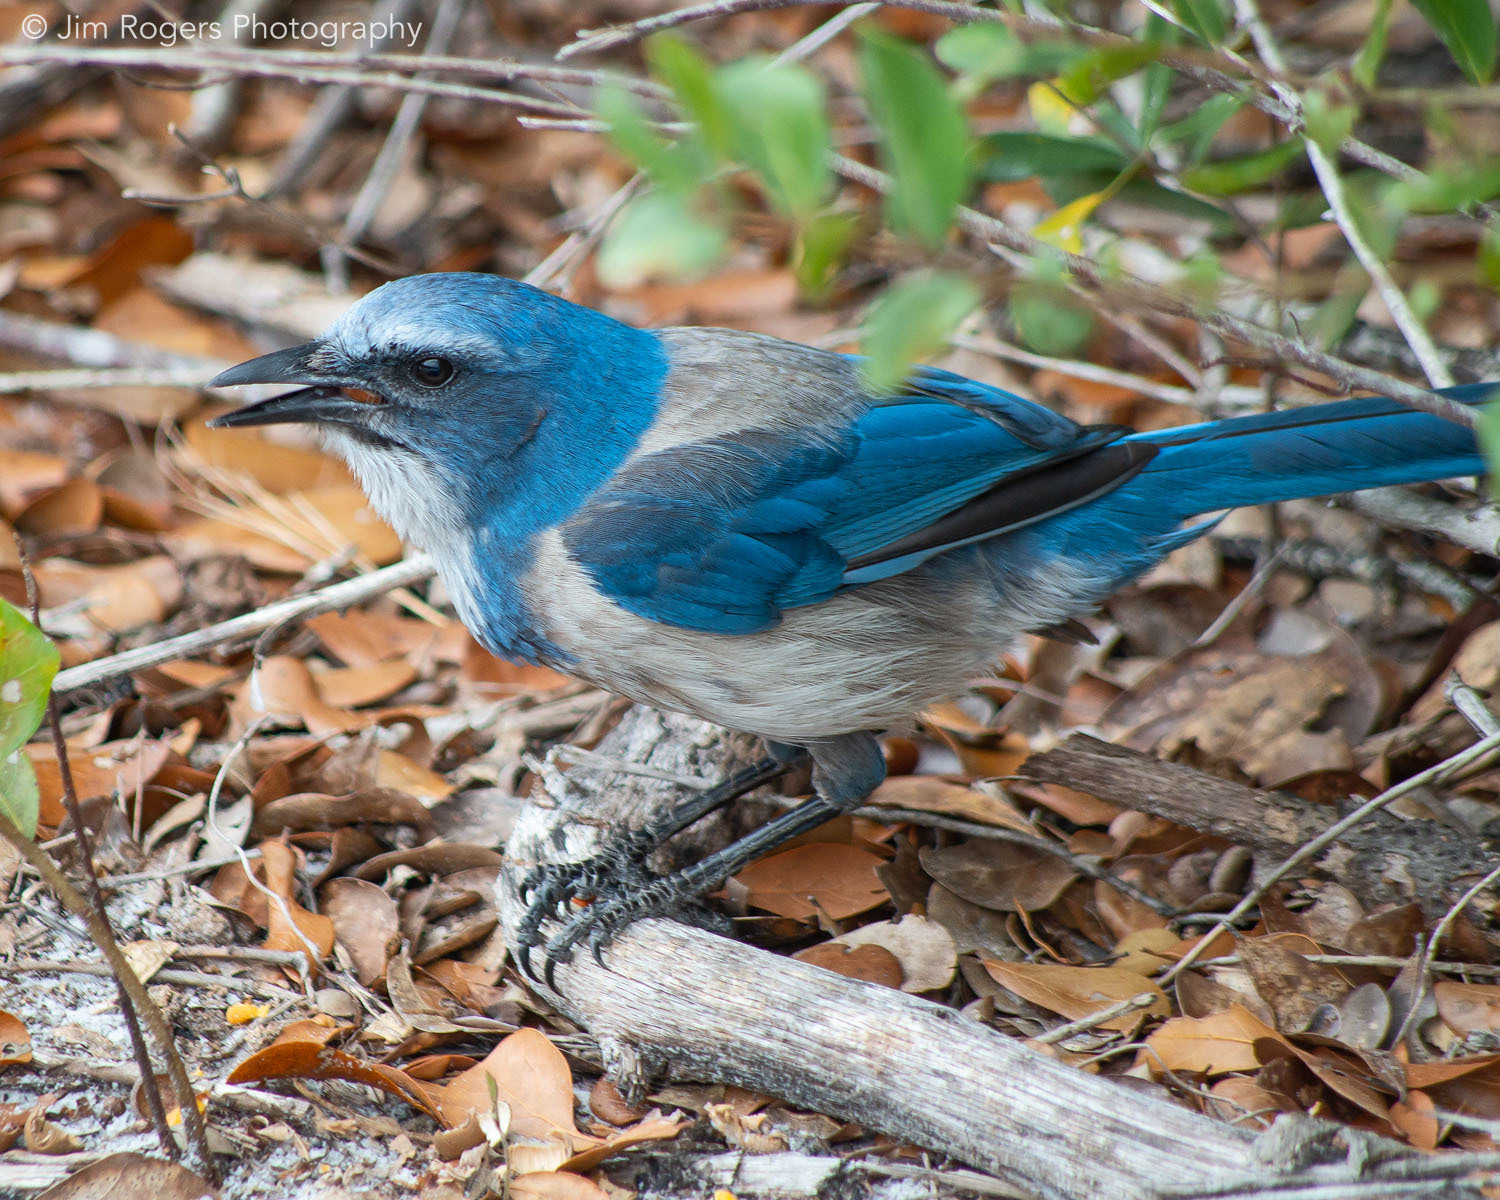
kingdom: Animalia
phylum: Chordata
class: Aves
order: Passeriformes
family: Corvidae
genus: Aphelocoma
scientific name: Aphelocoma coerulescens
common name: Florida scrub jay
